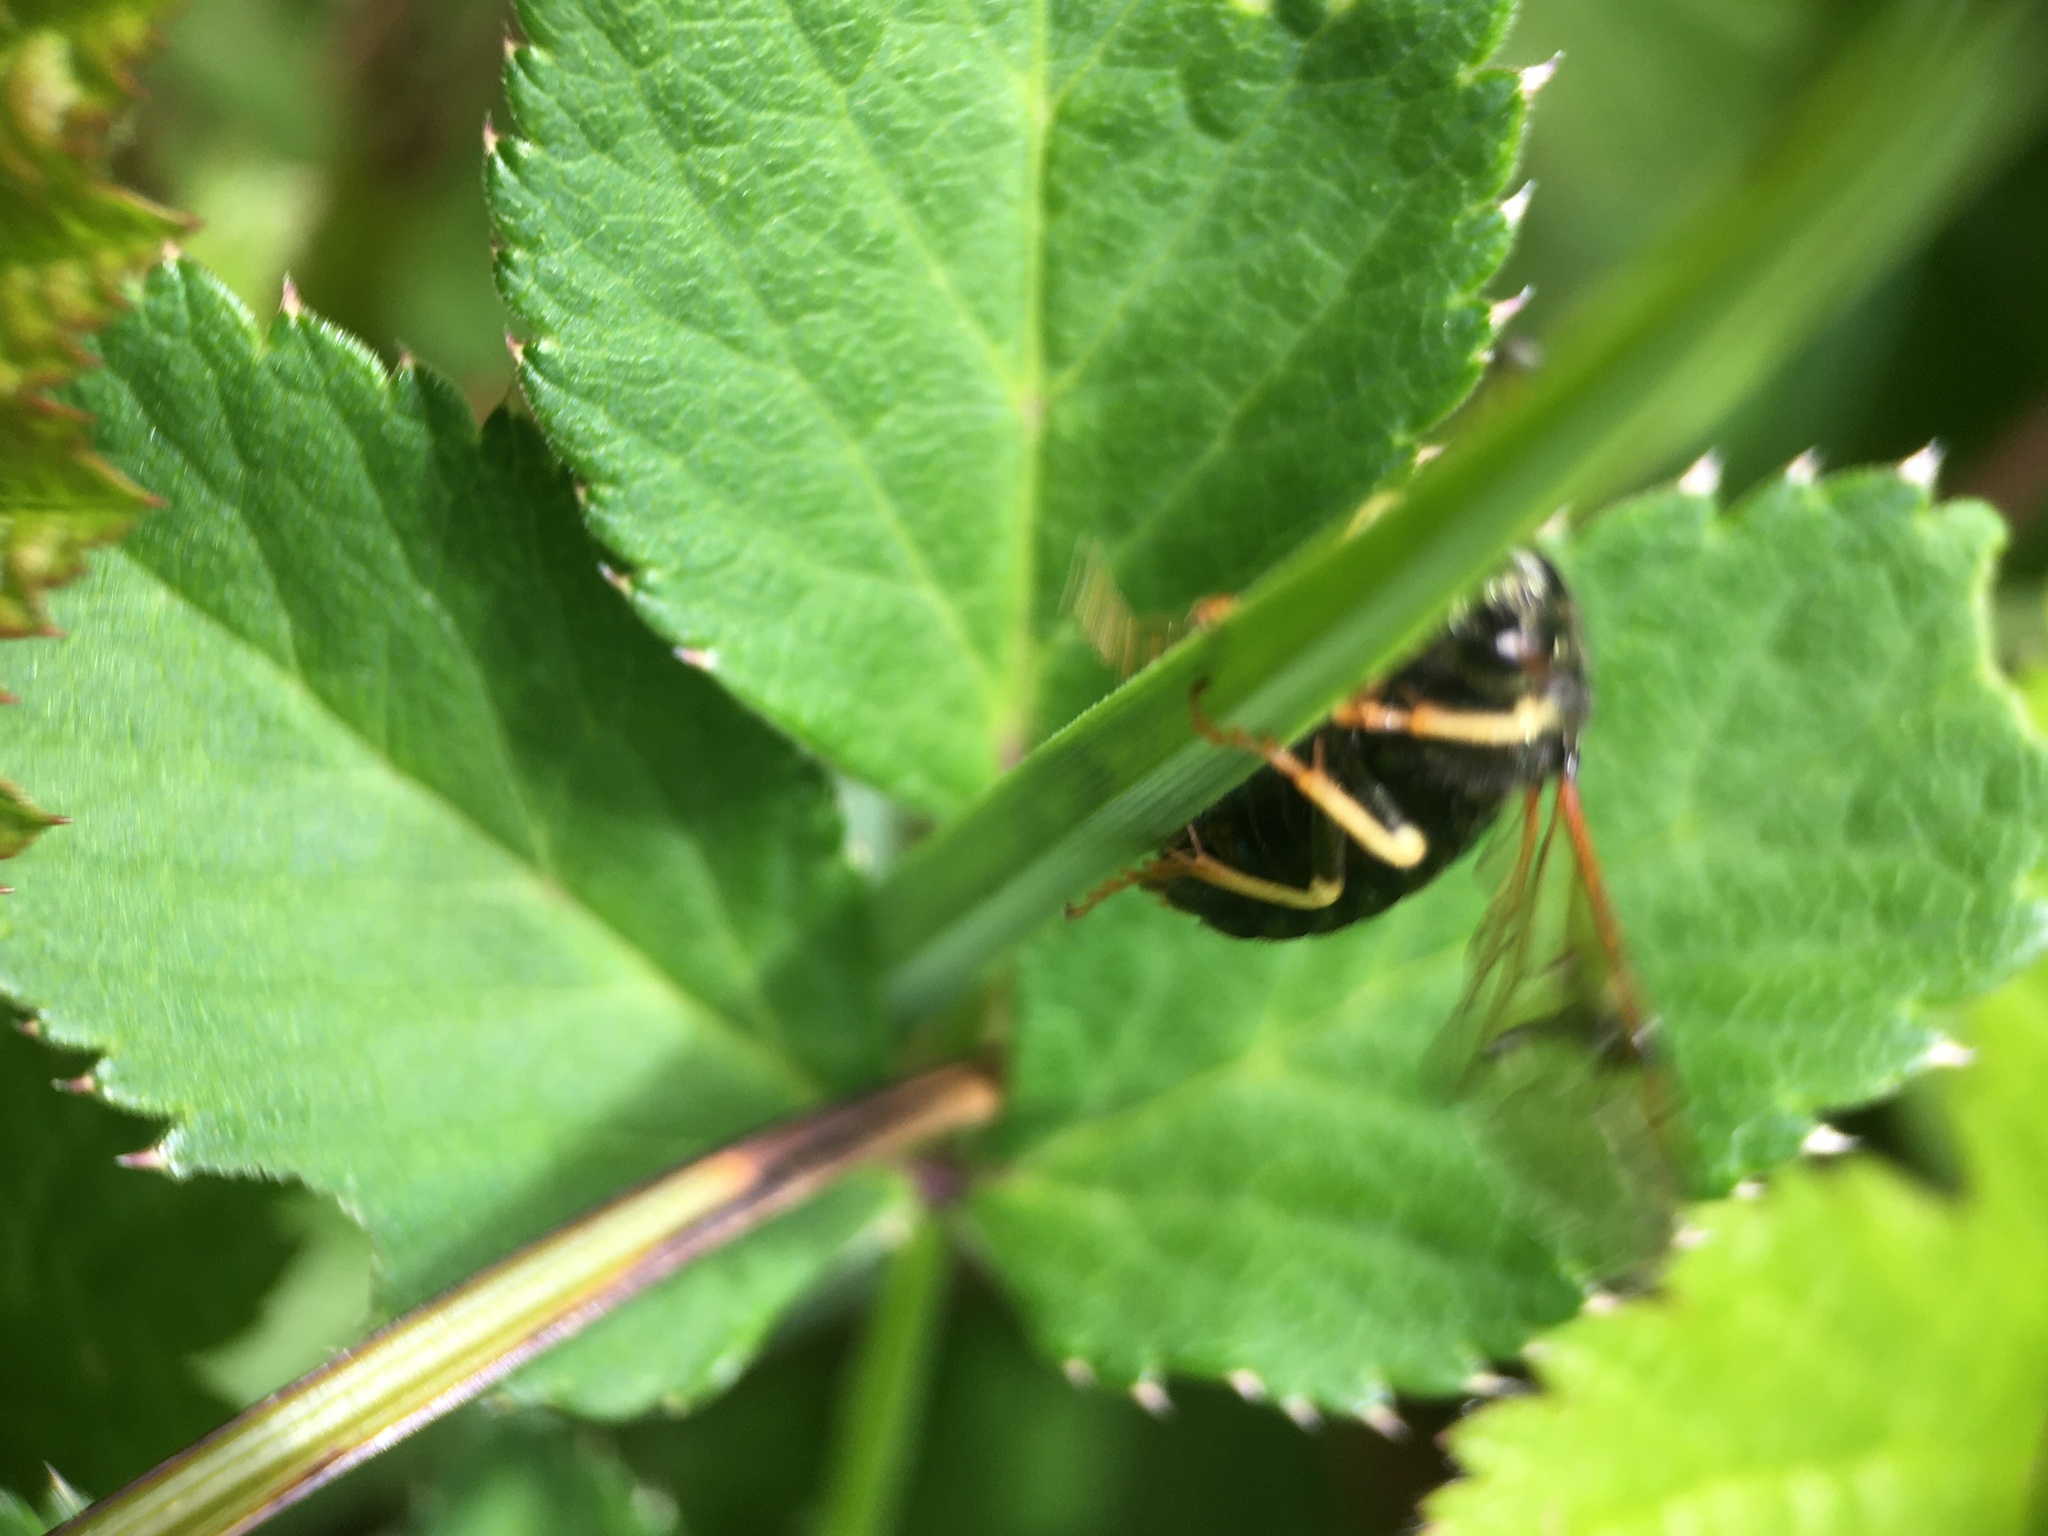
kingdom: Animalia
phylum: Arthropoda
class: Insecta
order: Hymenoptera
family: Cimbicidae
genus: Abia
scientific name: Abia candens
